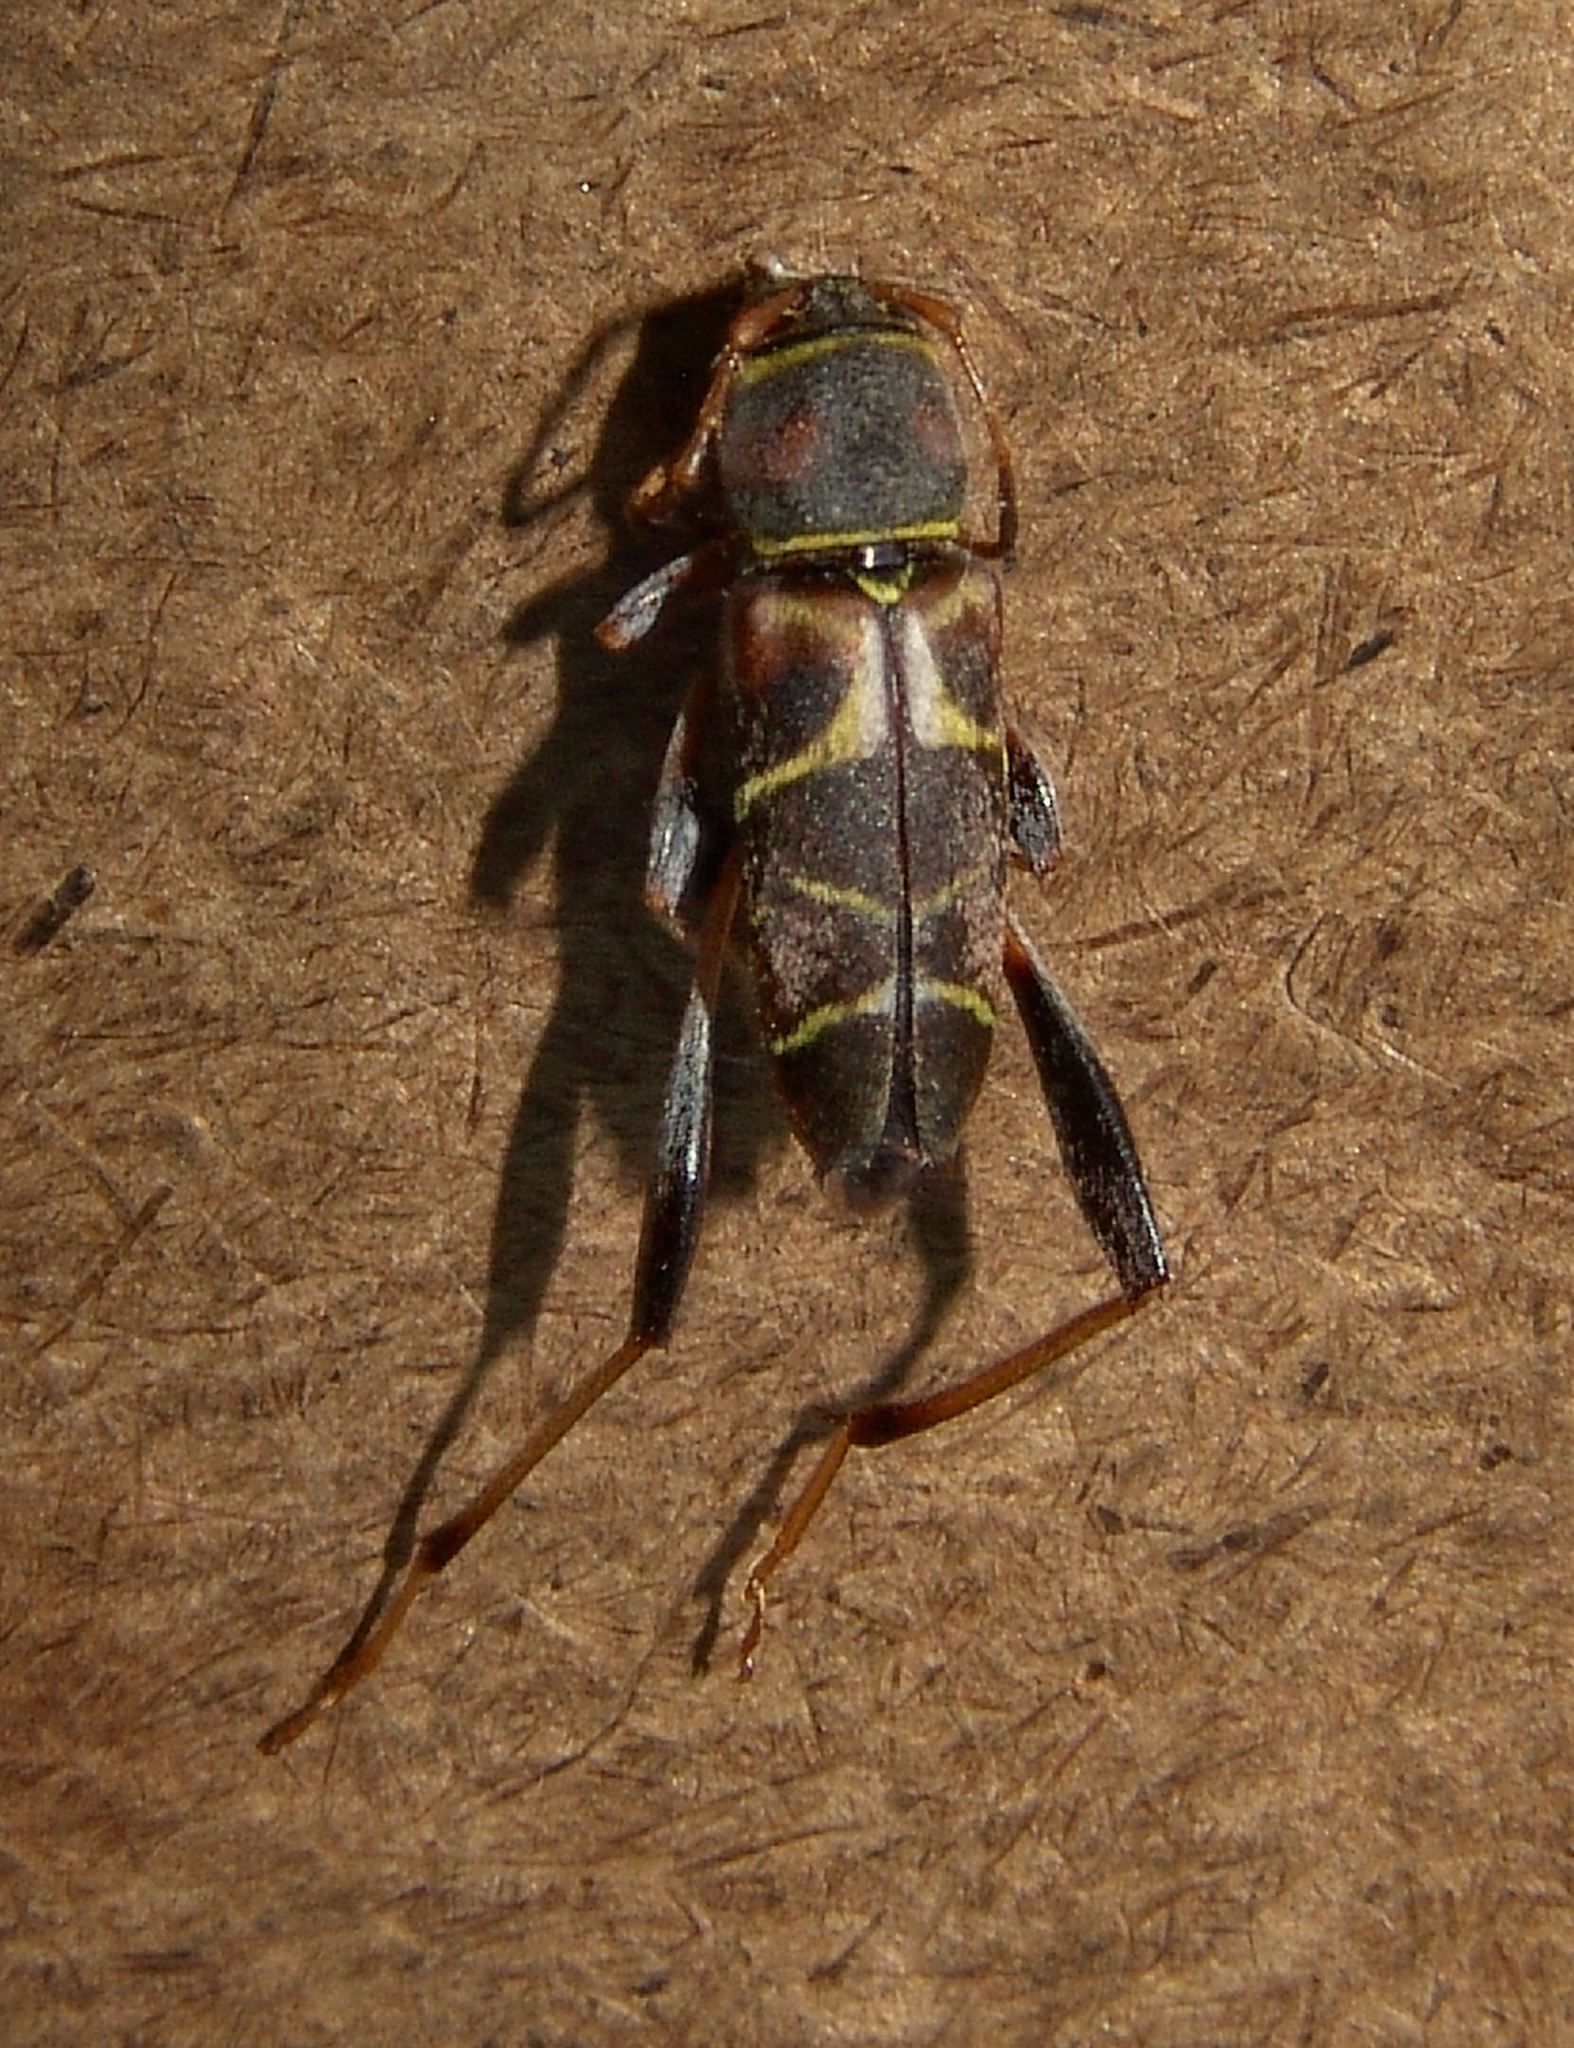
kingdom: Animalia
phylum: Arthropoda
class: Insecta
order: Coleoptera
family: Cerambycidae
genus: Neoclytus
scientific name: Neoclytus mucronatus
